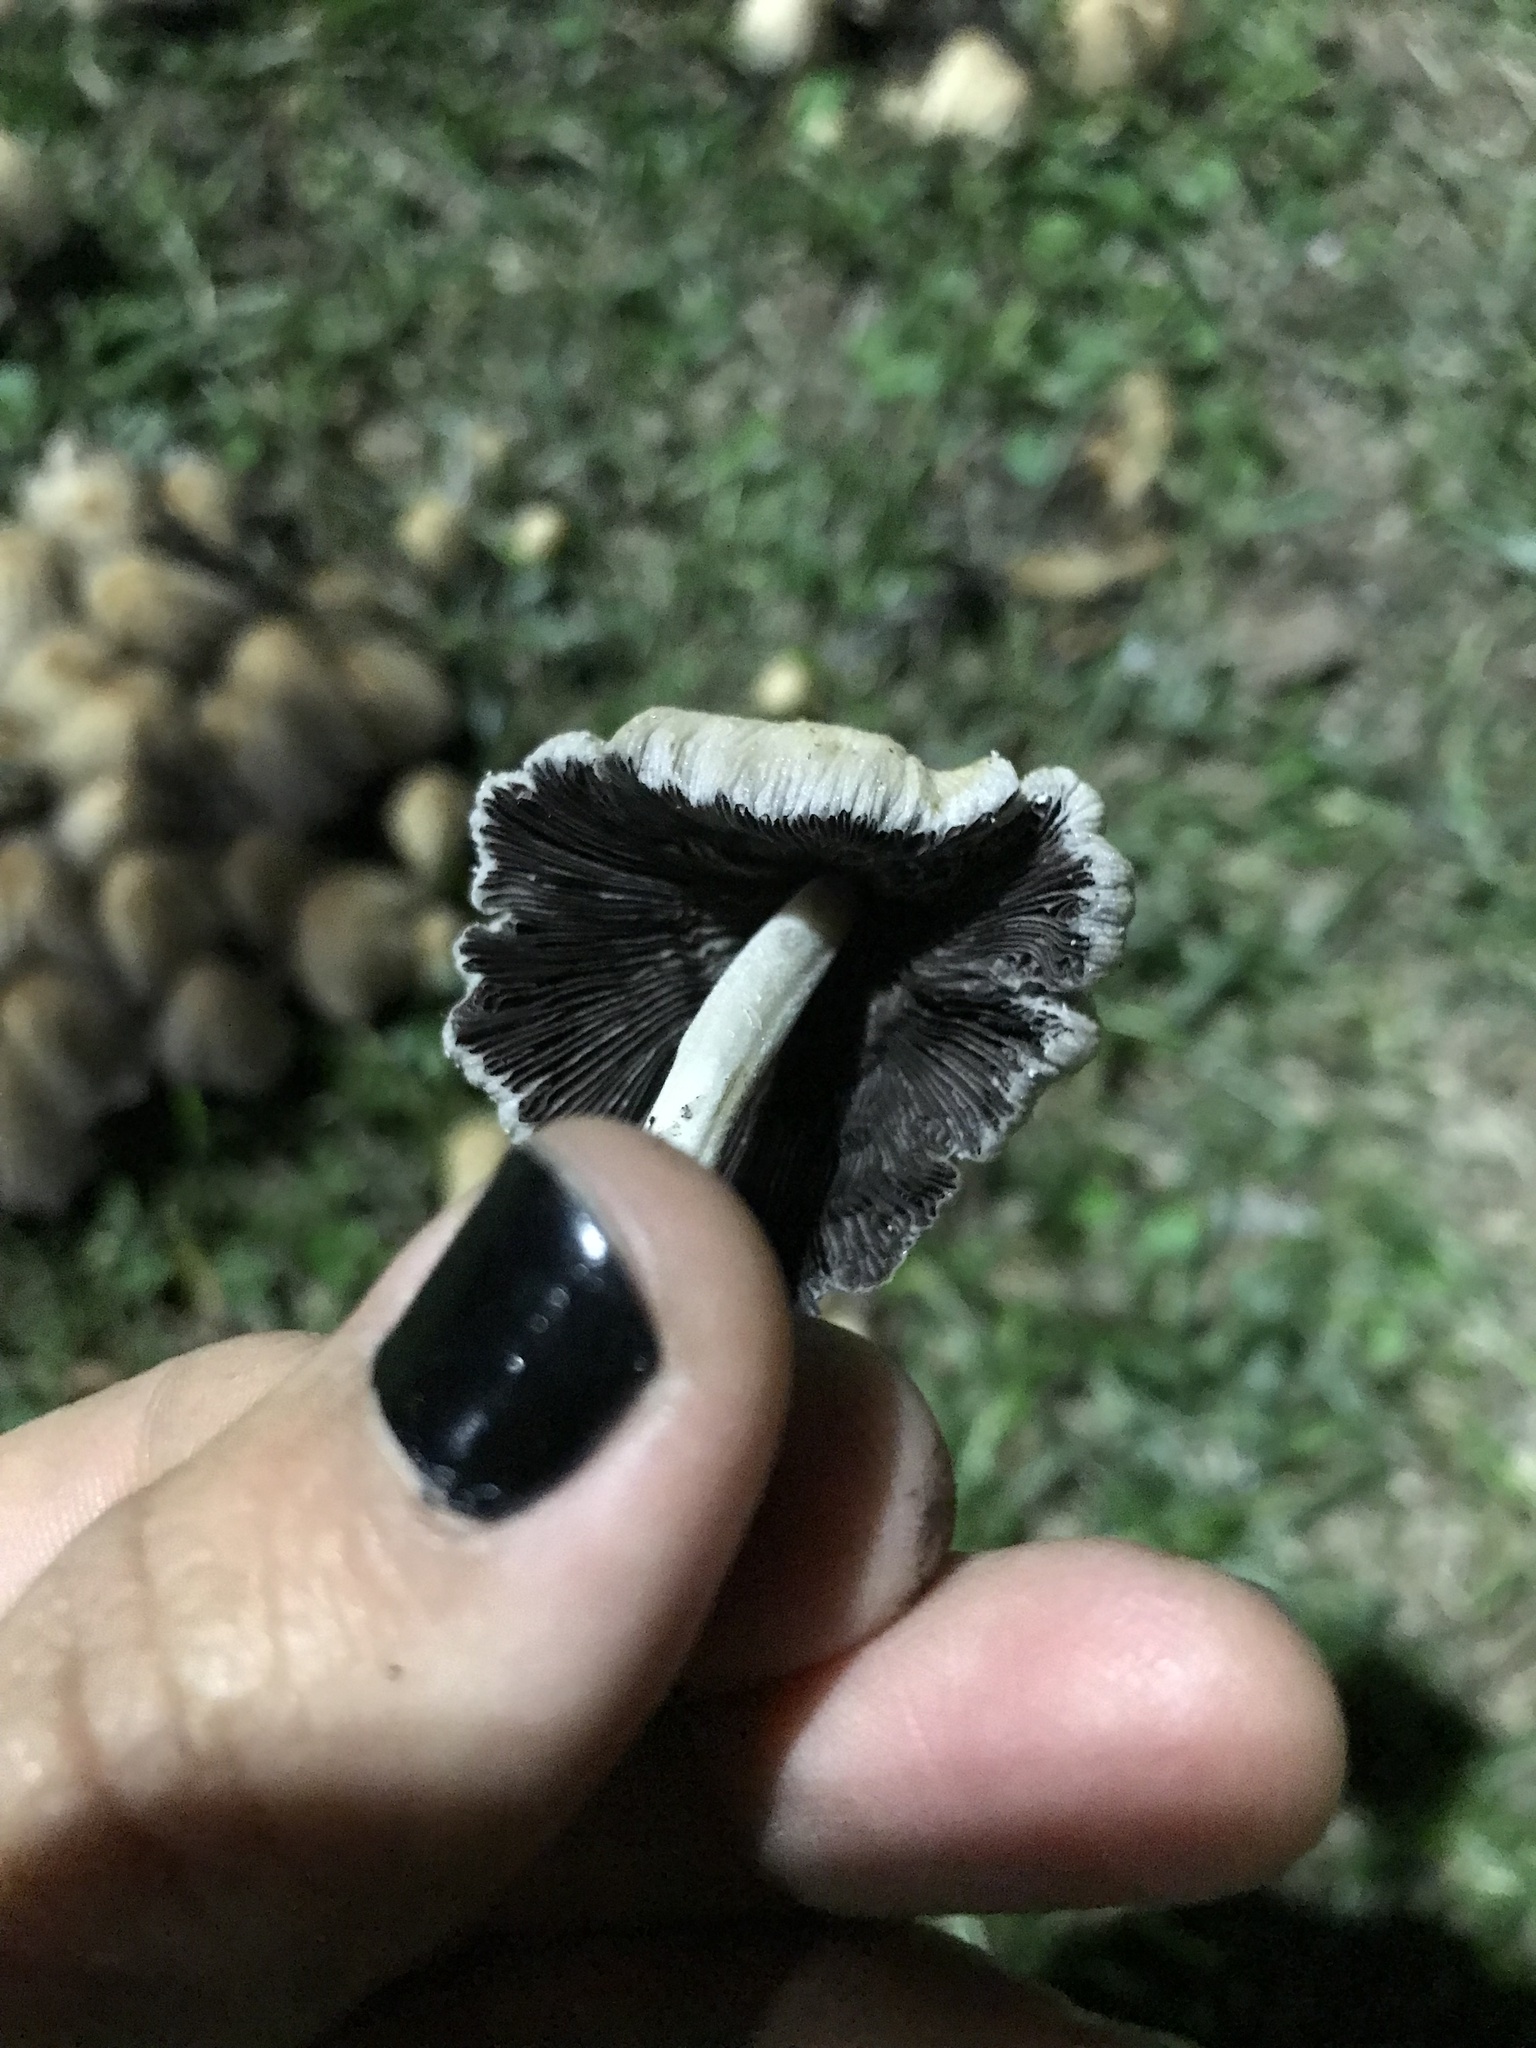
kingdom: Fungi
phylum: Basidiomycota
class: Agaricomycetes
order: Agaricales
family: Psathyrellaceae
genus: Coprinellus
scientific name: Coprinellus micaceus
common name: Glistening ink-cap
